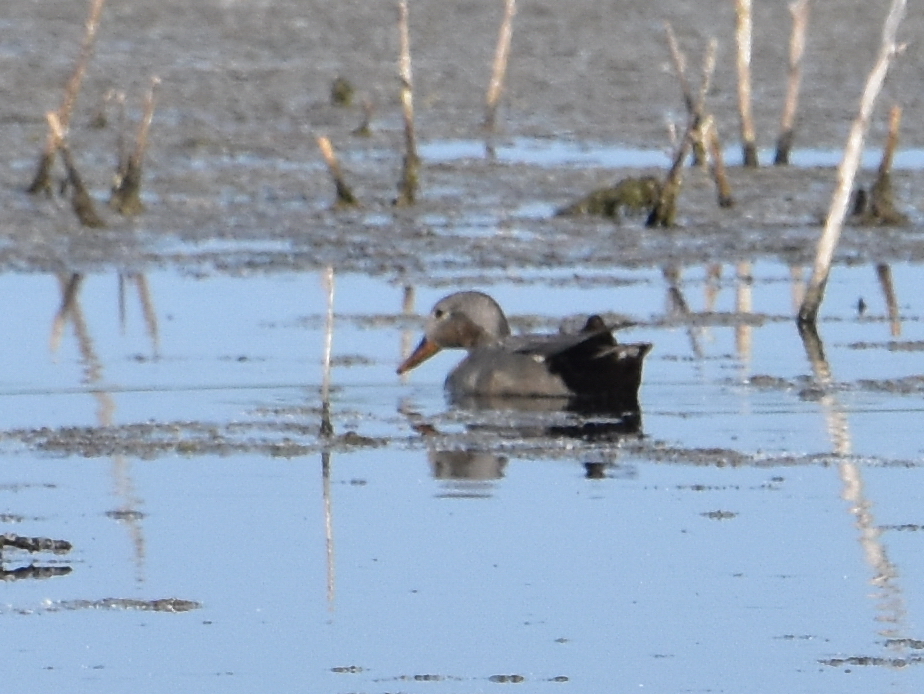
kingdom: Animalia
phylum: Chordata
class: Aves
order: Anseriformes
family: Anatidae
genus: Mareca
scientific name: Mareca strepera
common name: Gadwall
